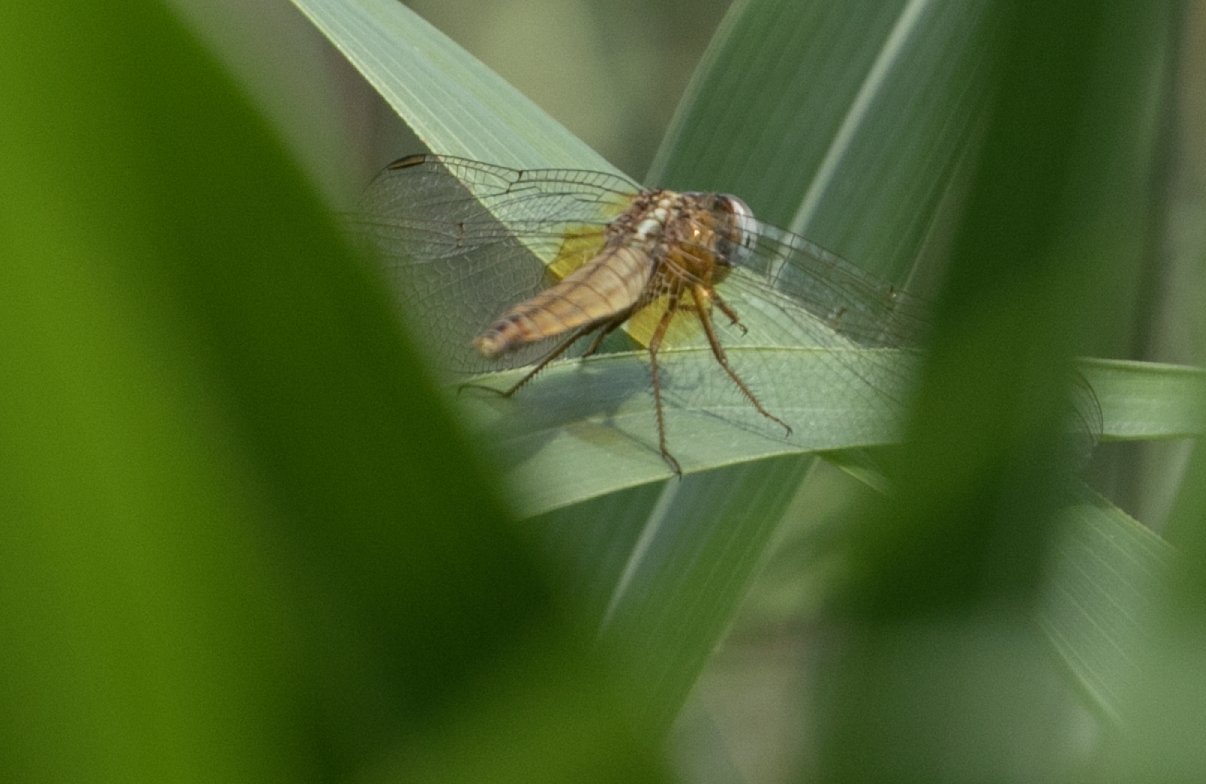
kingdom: Animalia
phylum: Arthropoda
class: Insecta
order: Odonata
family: Libellulidae
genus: Crocothemis
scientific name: Crocothemis erythraea
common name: Scarlet dragonfly
